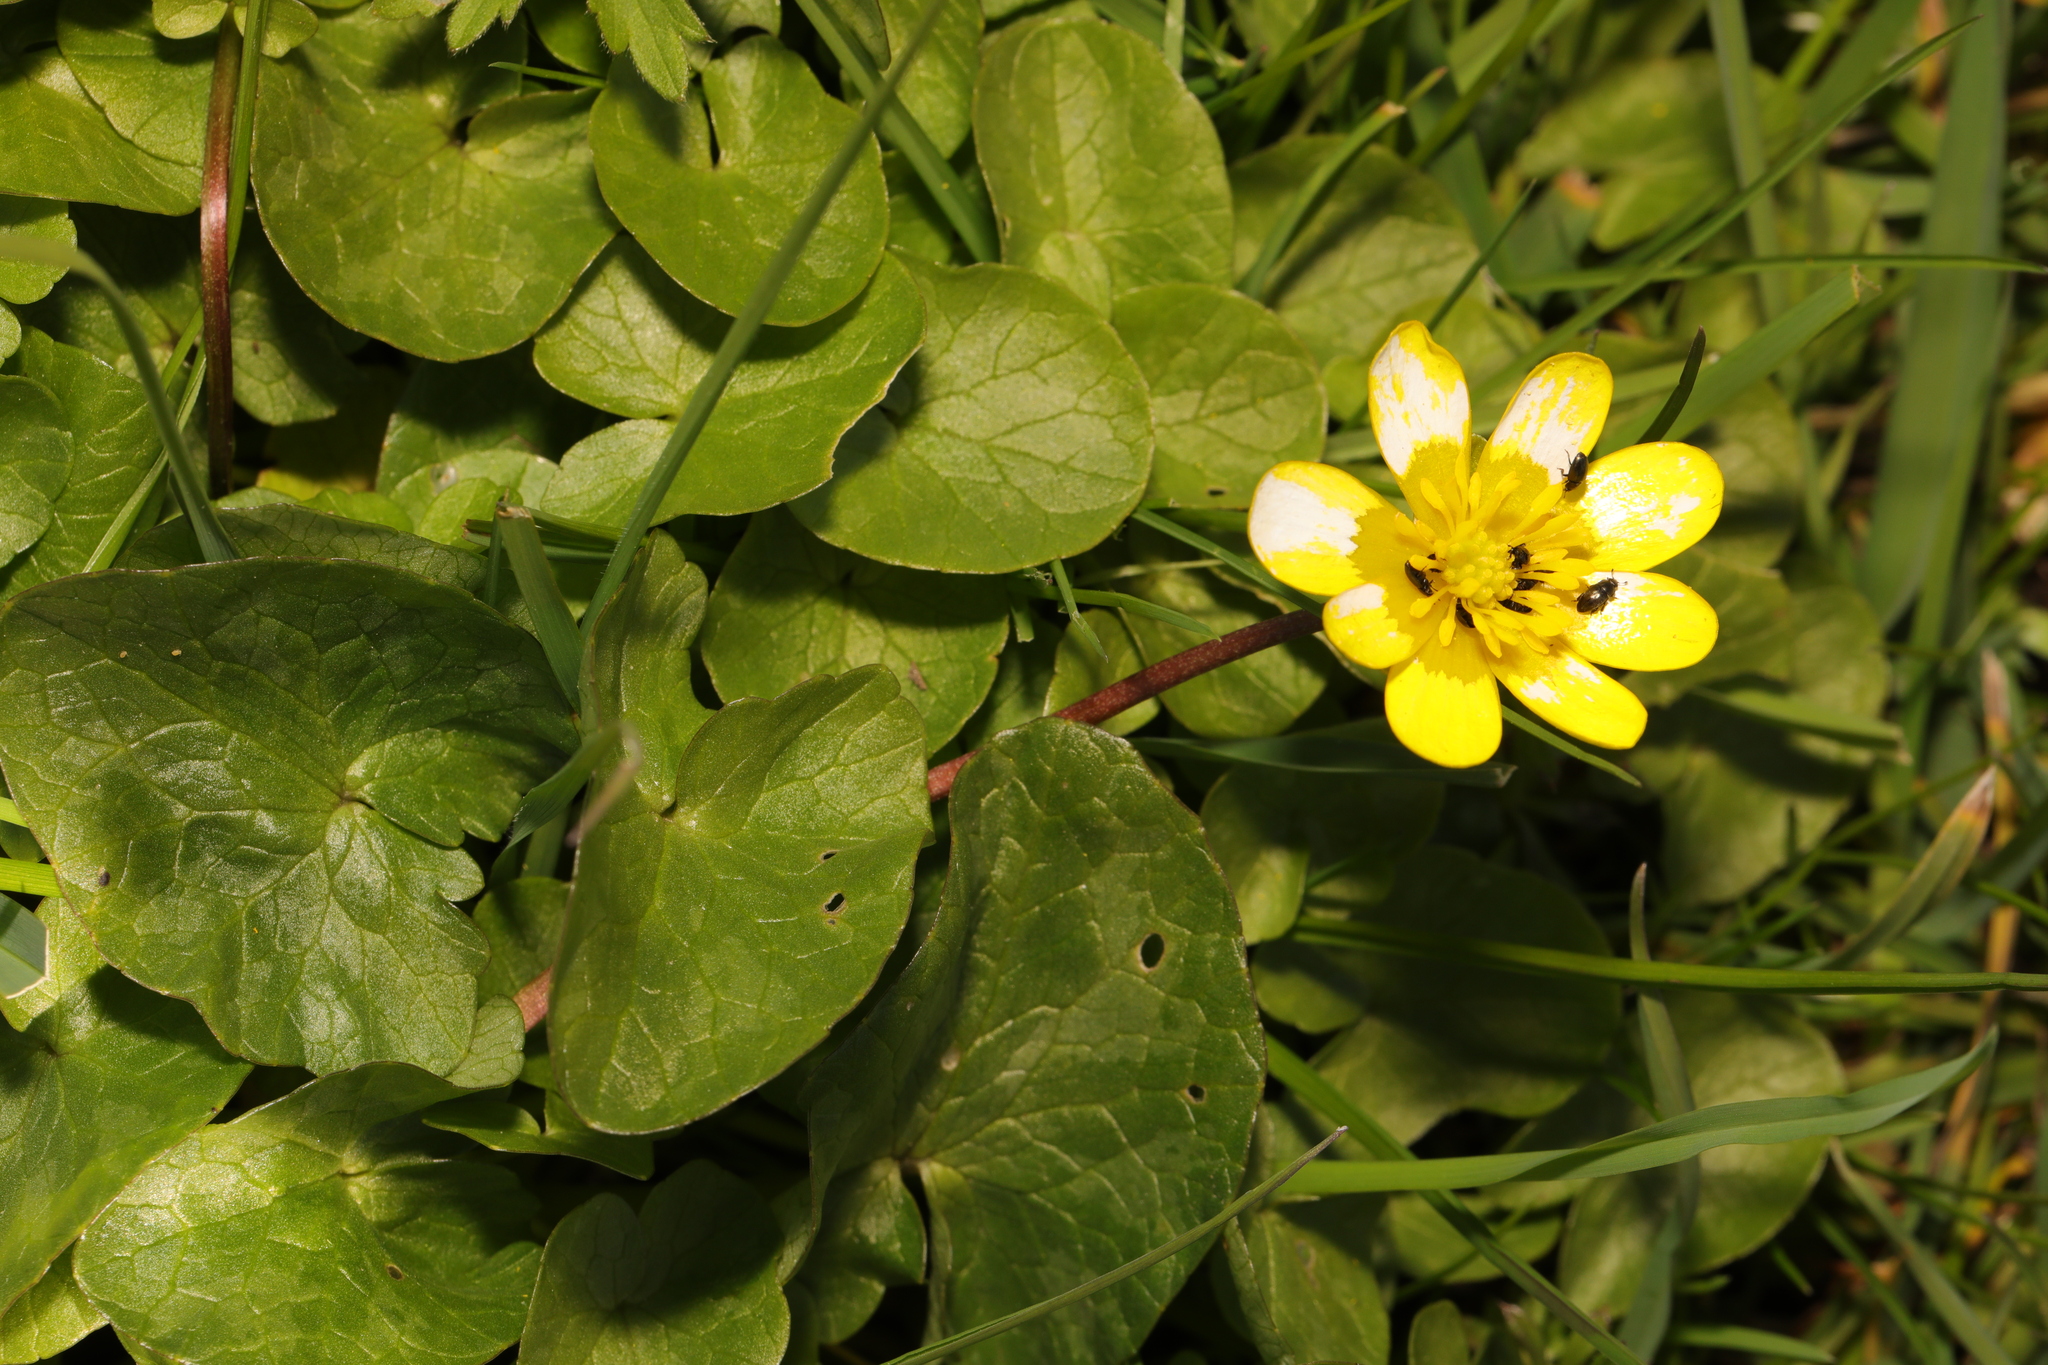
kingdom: Plantae
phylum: Tracheophyta
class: Magnoliopsida
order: Ranunculales
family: Ranunculaceae
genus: Ficaria
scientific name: Ficaria verna
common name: Lesser celandine
